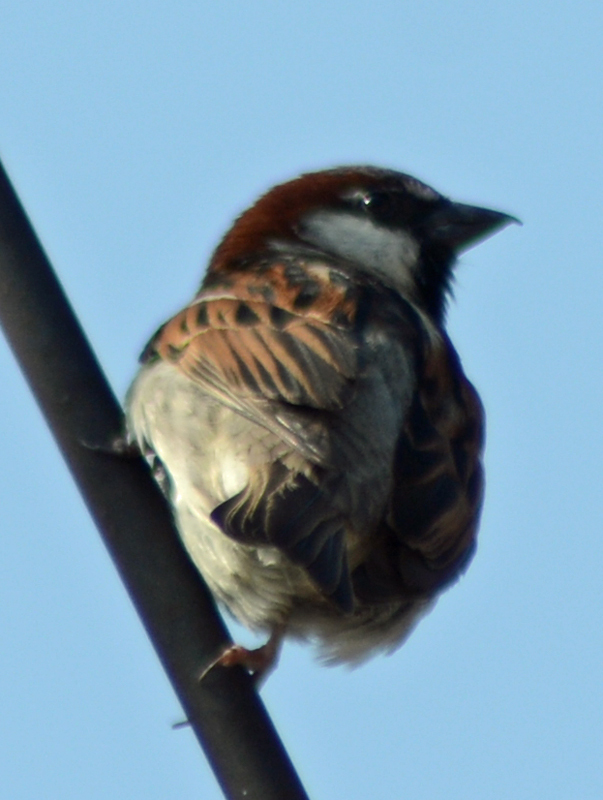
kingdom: Animalia
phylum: Chordata
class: Aves
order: Passeriformes
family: Passeridae
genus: Passer
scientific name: Passer domesticus
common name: House sparrow
